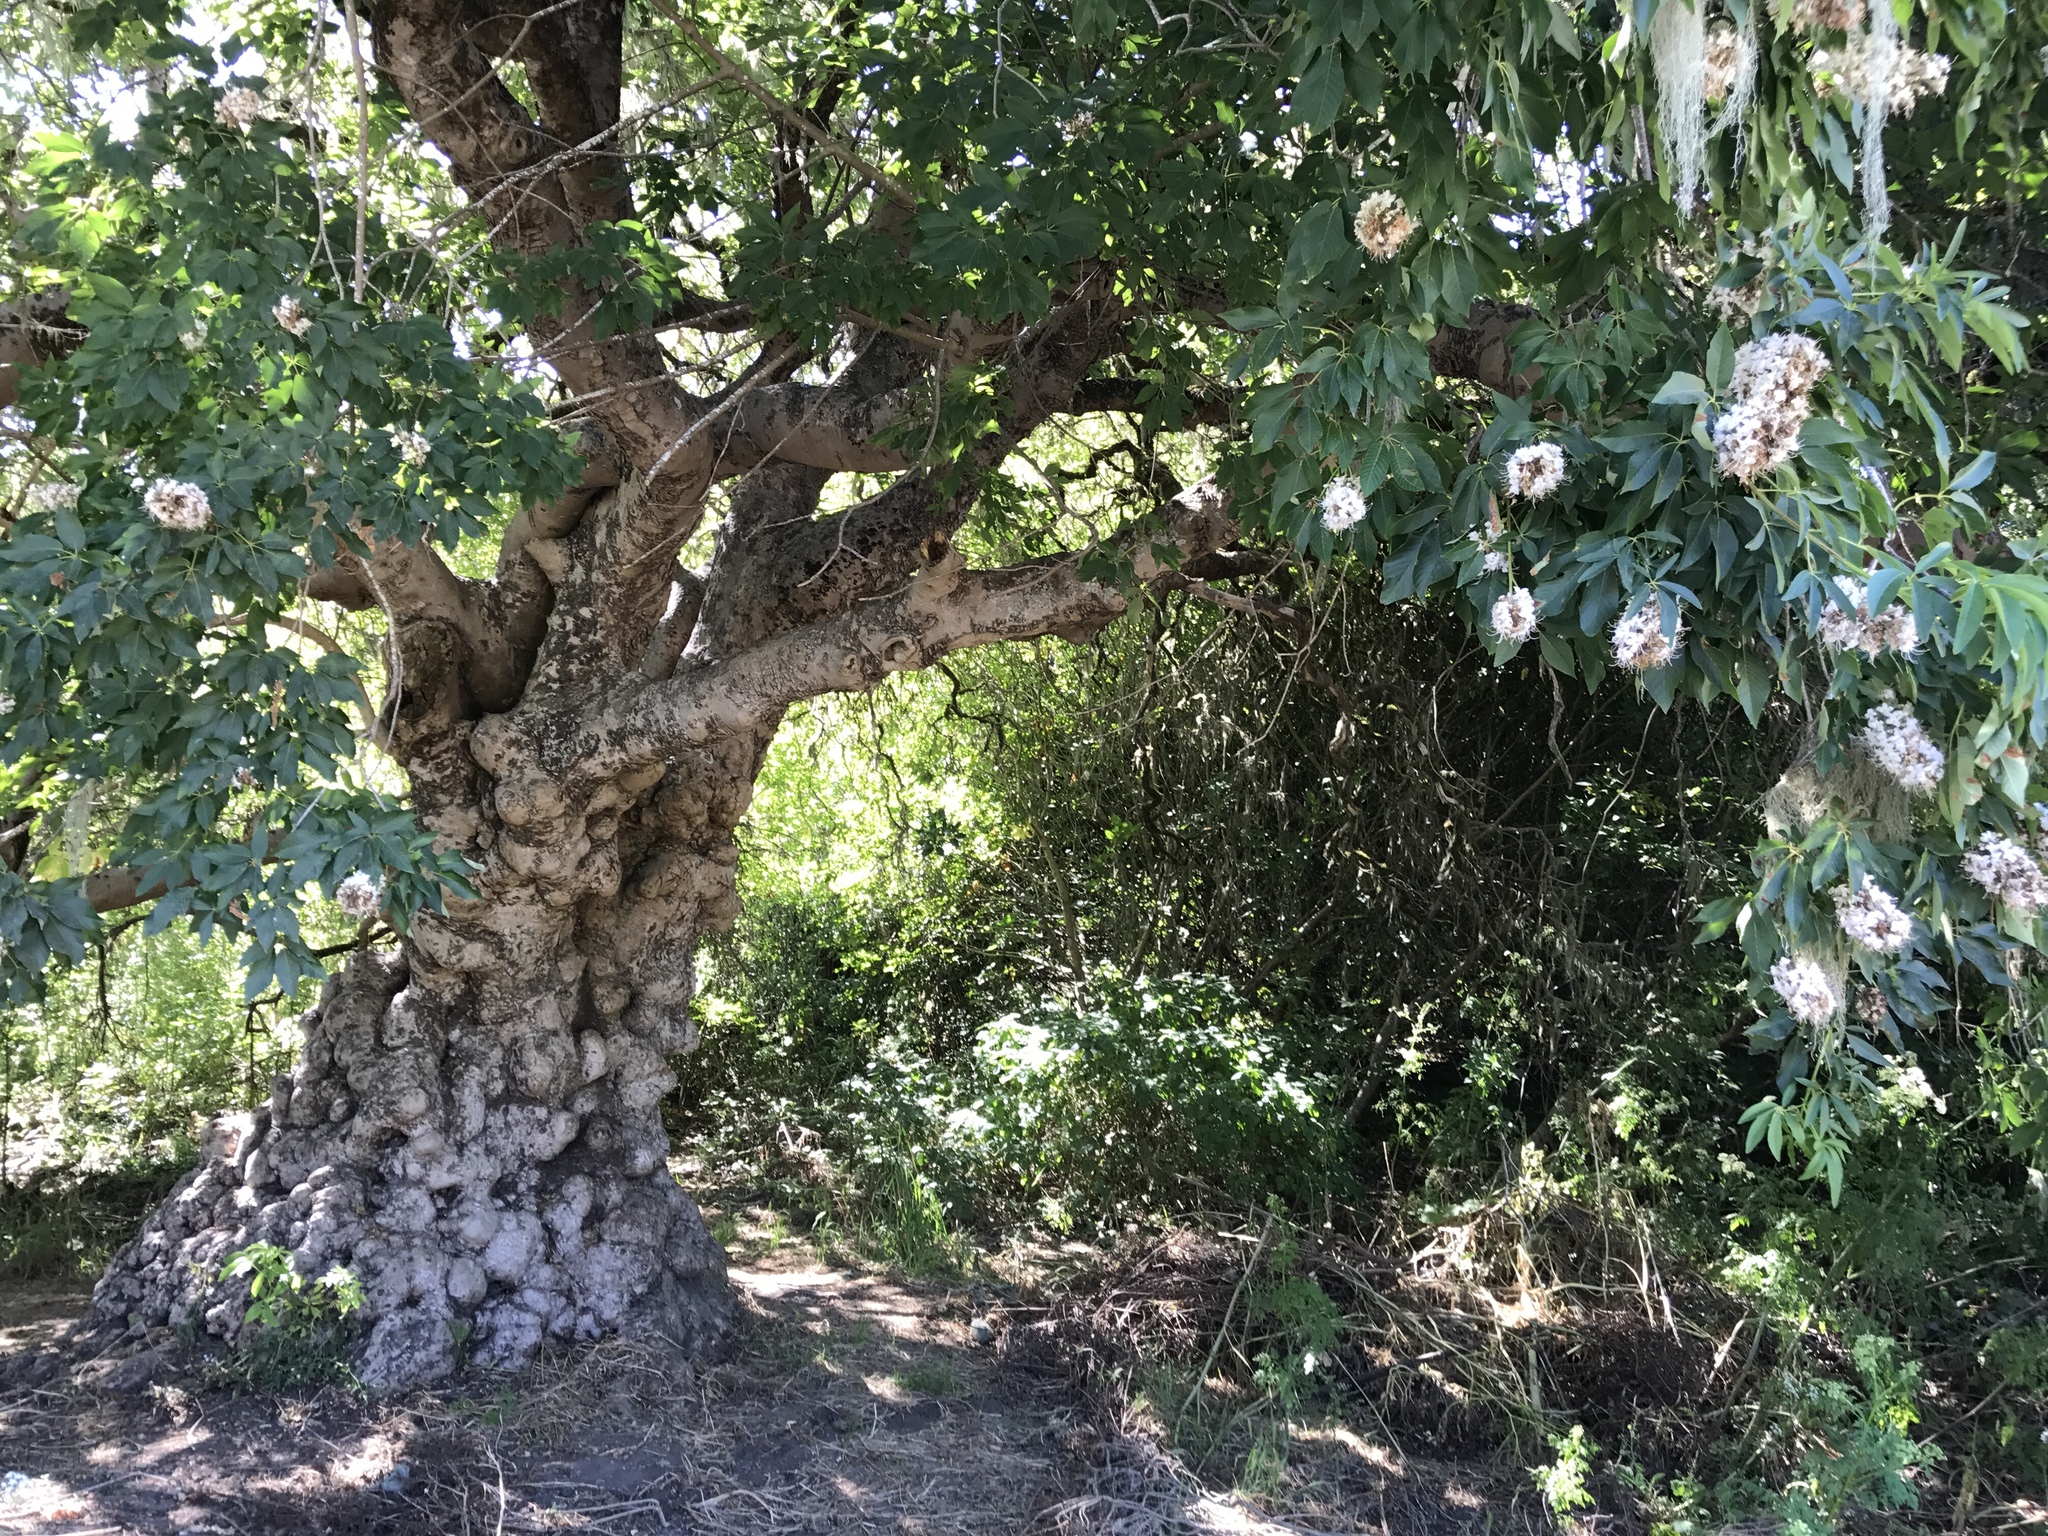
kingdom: Plantae
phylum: Tracheophyta
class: Magnoliopsida
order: Sapindales
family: Sapindaceae
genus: Aesculus
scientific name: Aesculus californica
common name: California buckeye
